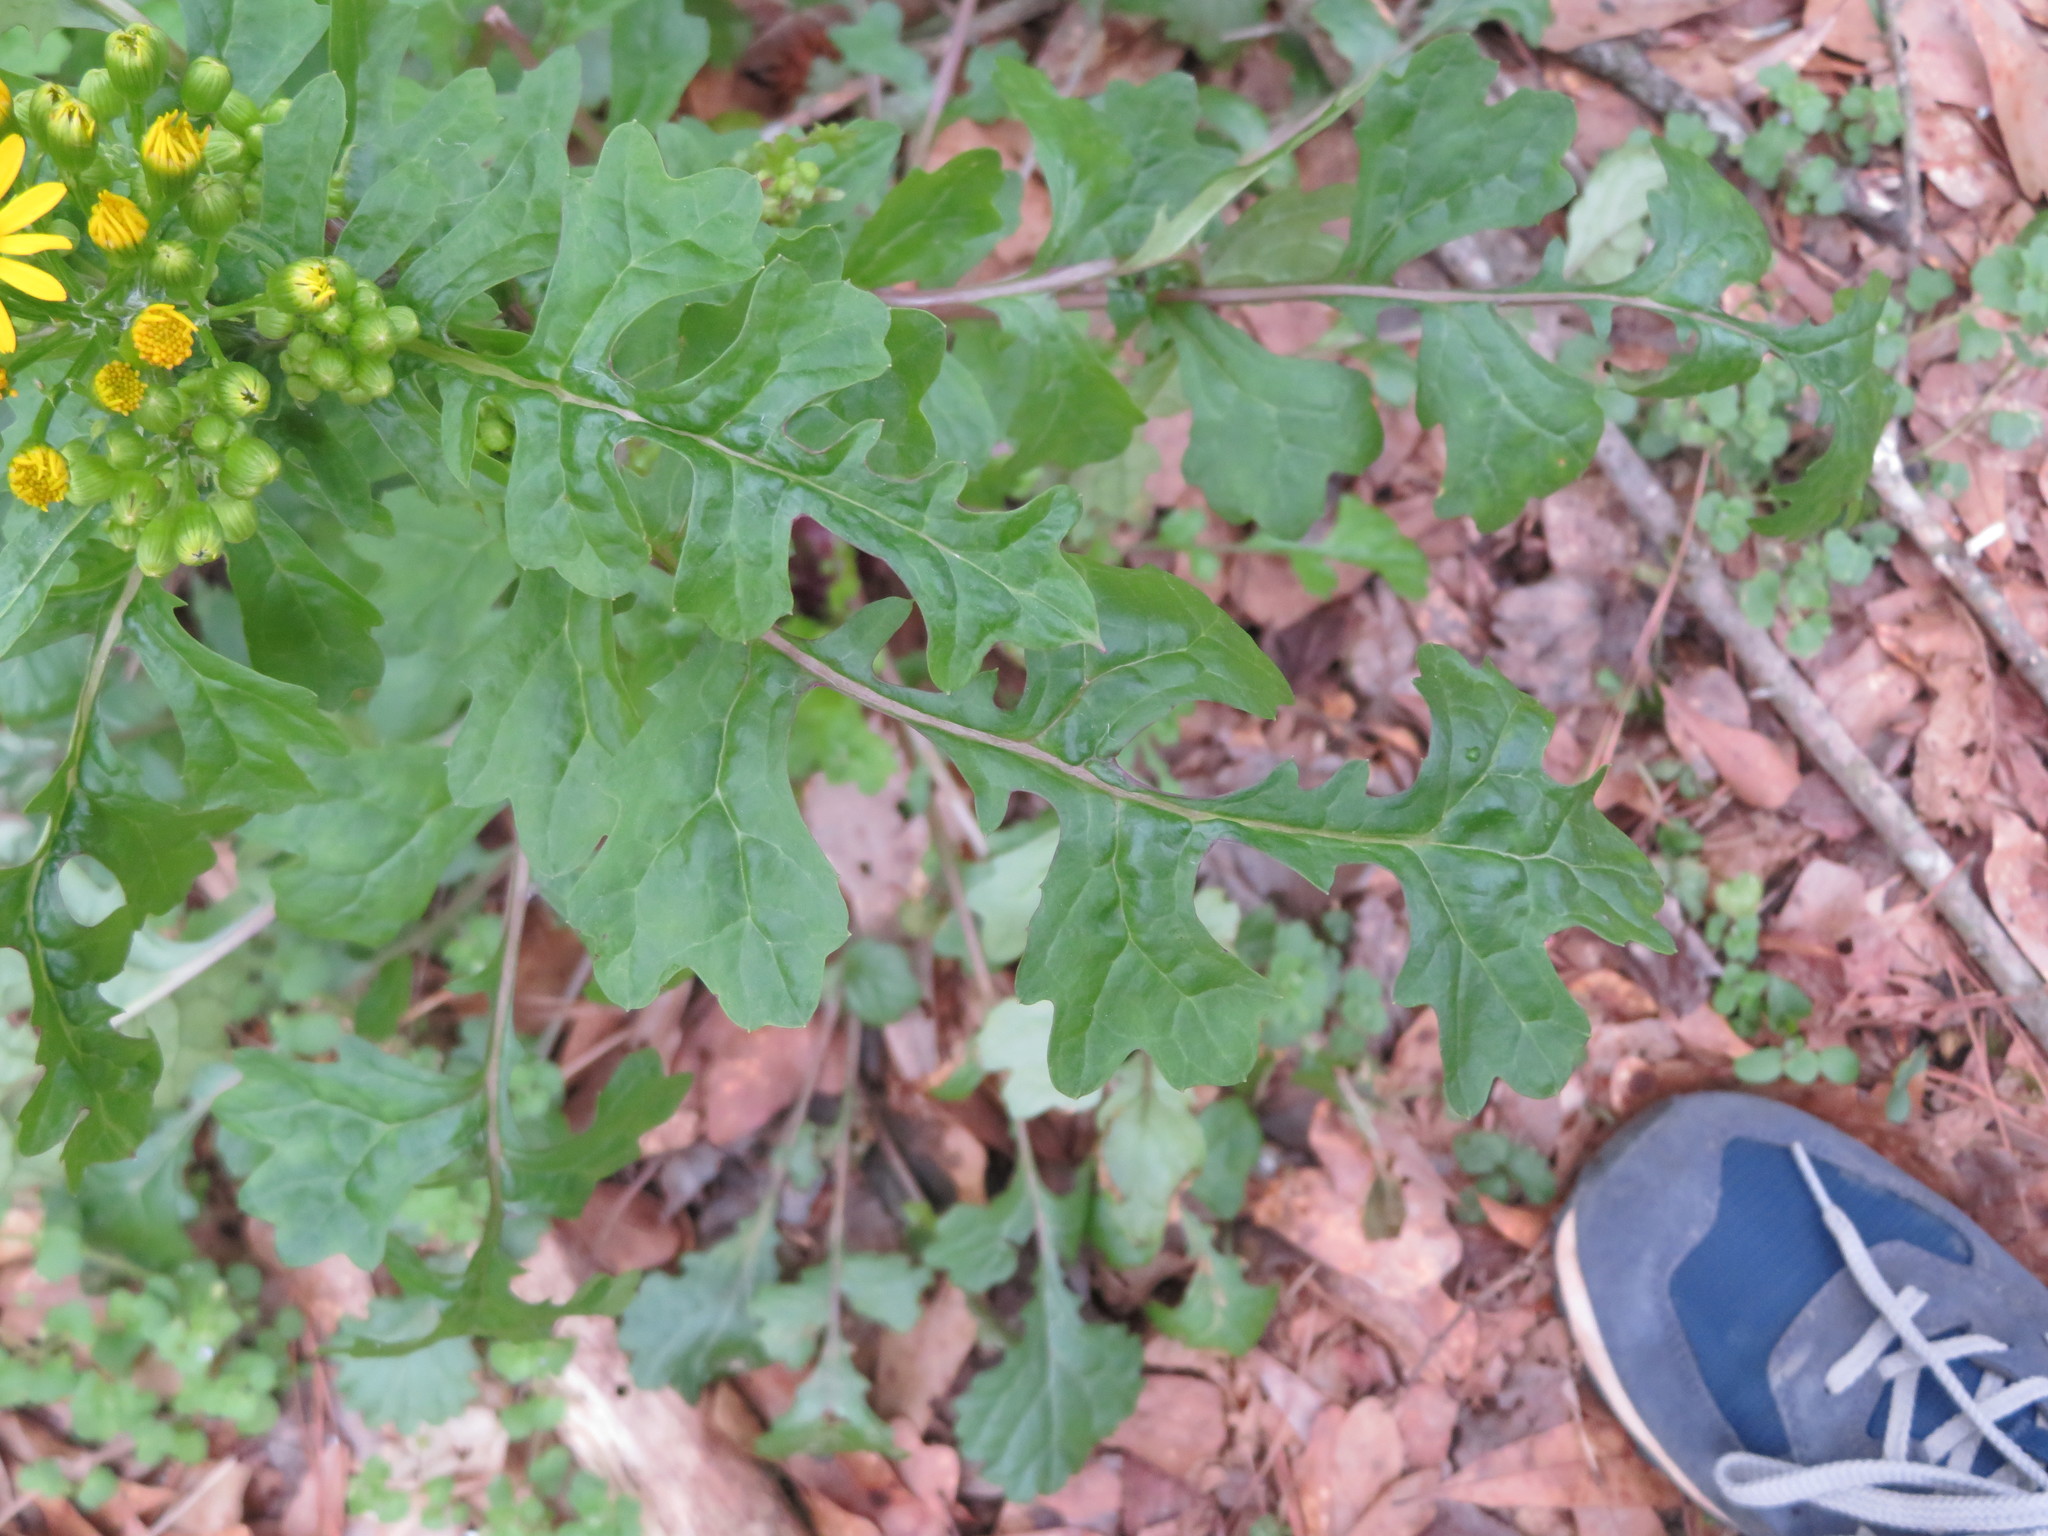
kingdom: Plantae
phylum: Tracheophyta
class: Magnoliopsida
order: Asterales
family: Asteraceae
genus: Packera
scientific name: Packera glabella
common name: Butterweed
